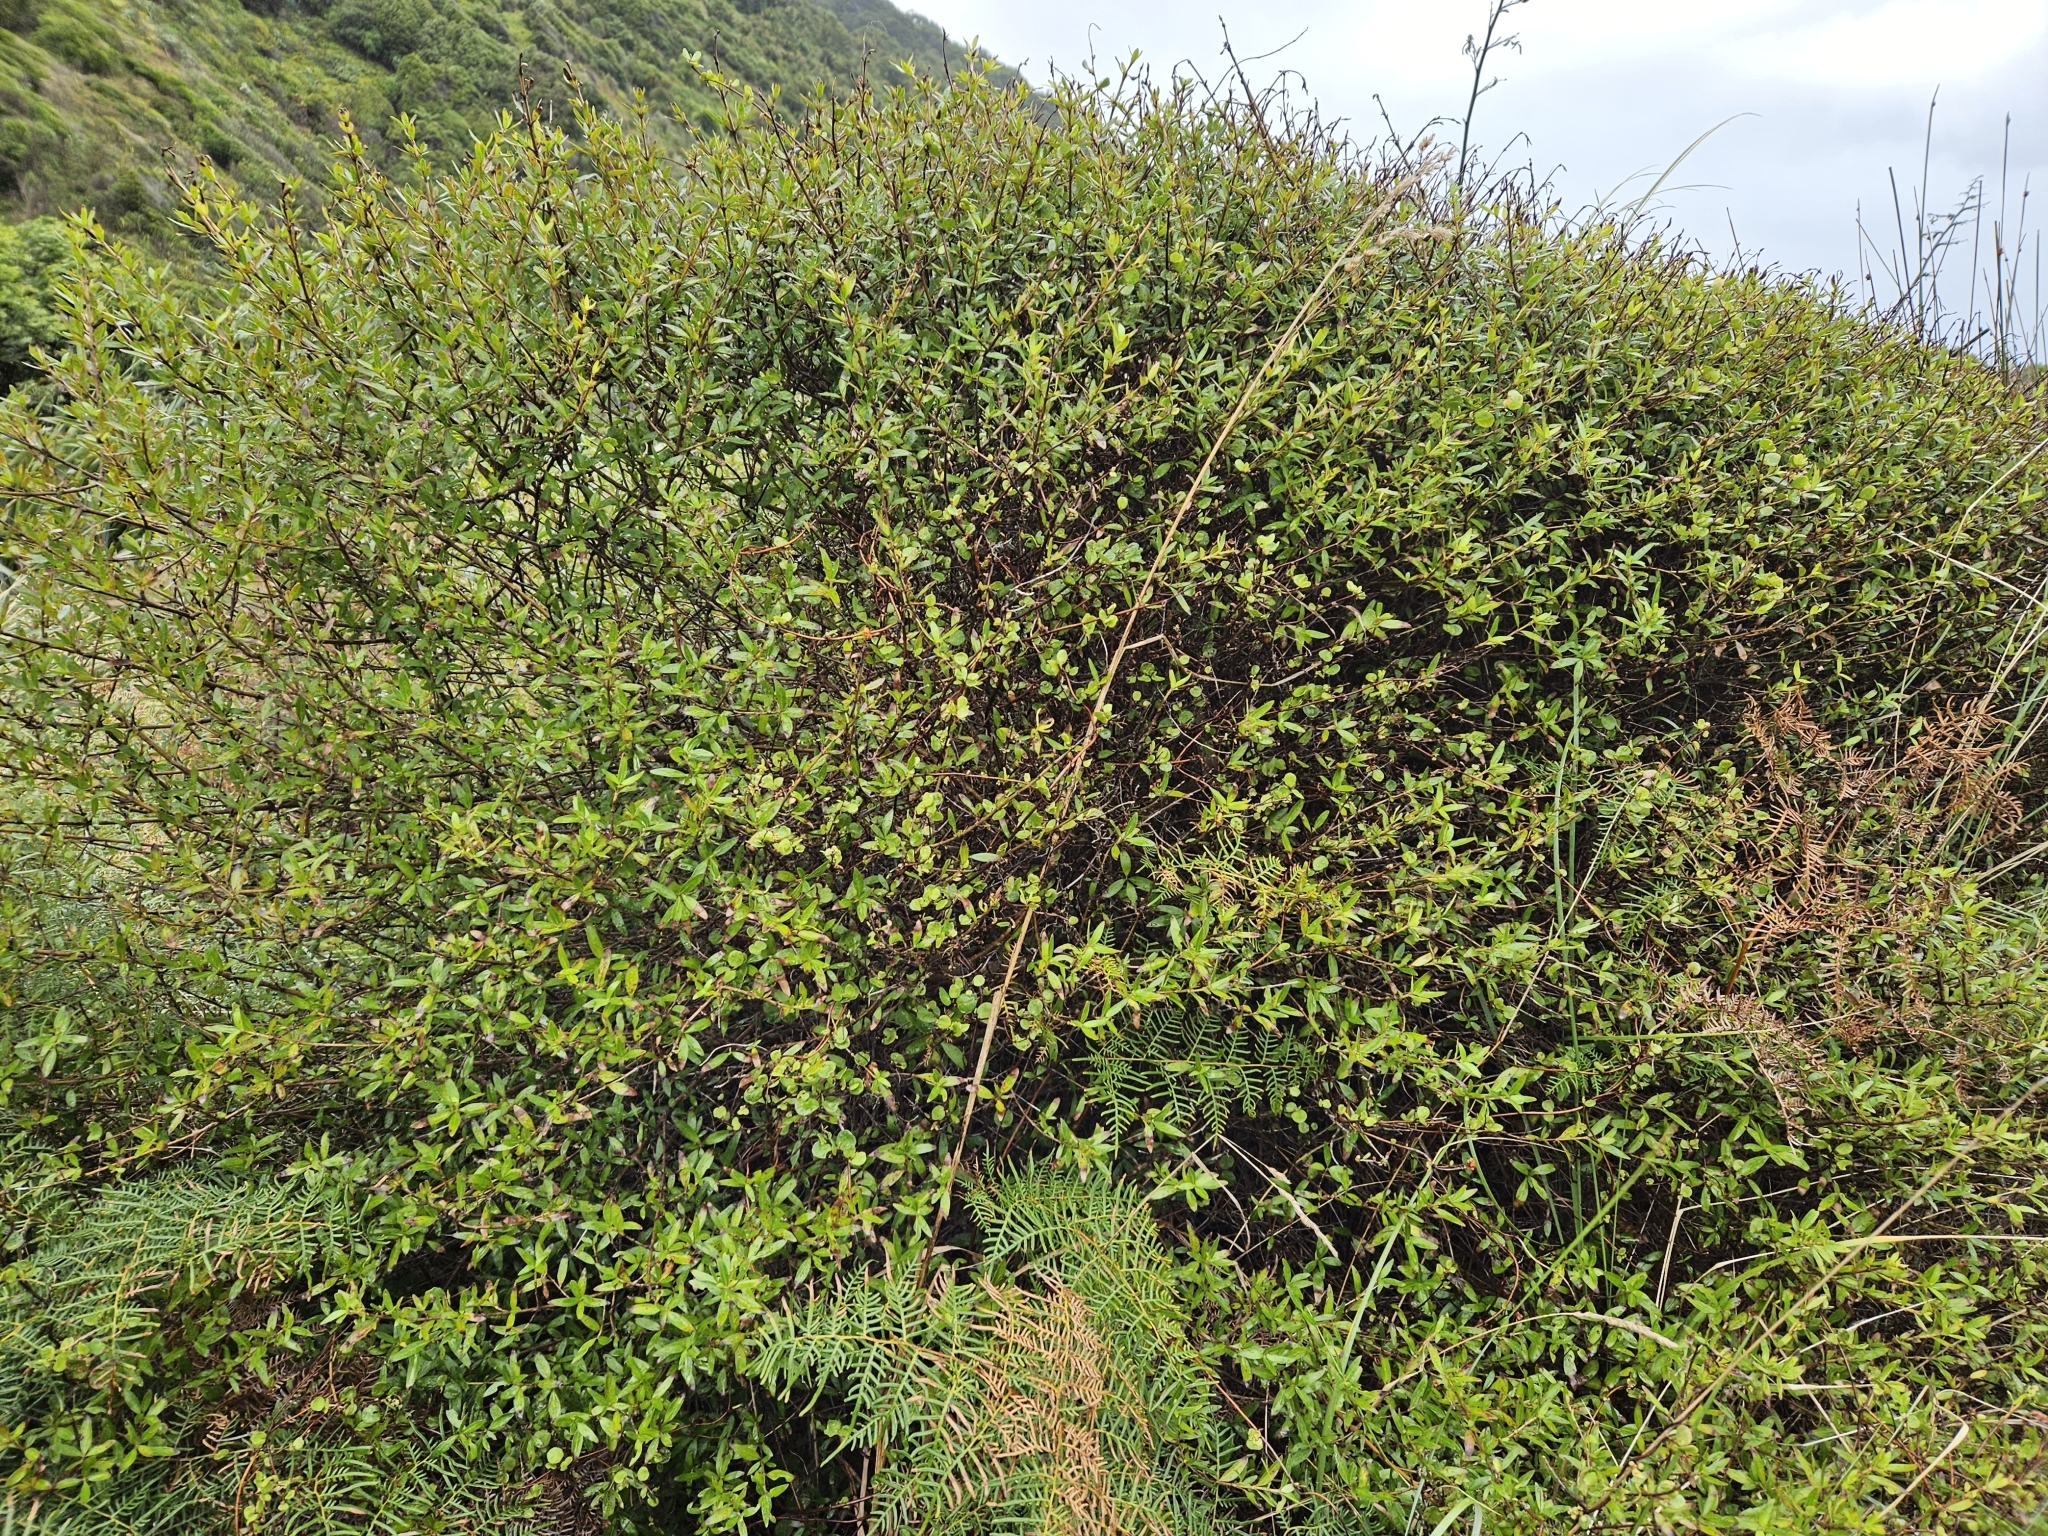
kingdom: Plantae
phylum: Tracheophyta
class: Magnoliopsida
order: Gentianales
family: Rubiaceae
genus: Coprosma
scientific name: Coprosma cunninghamii
